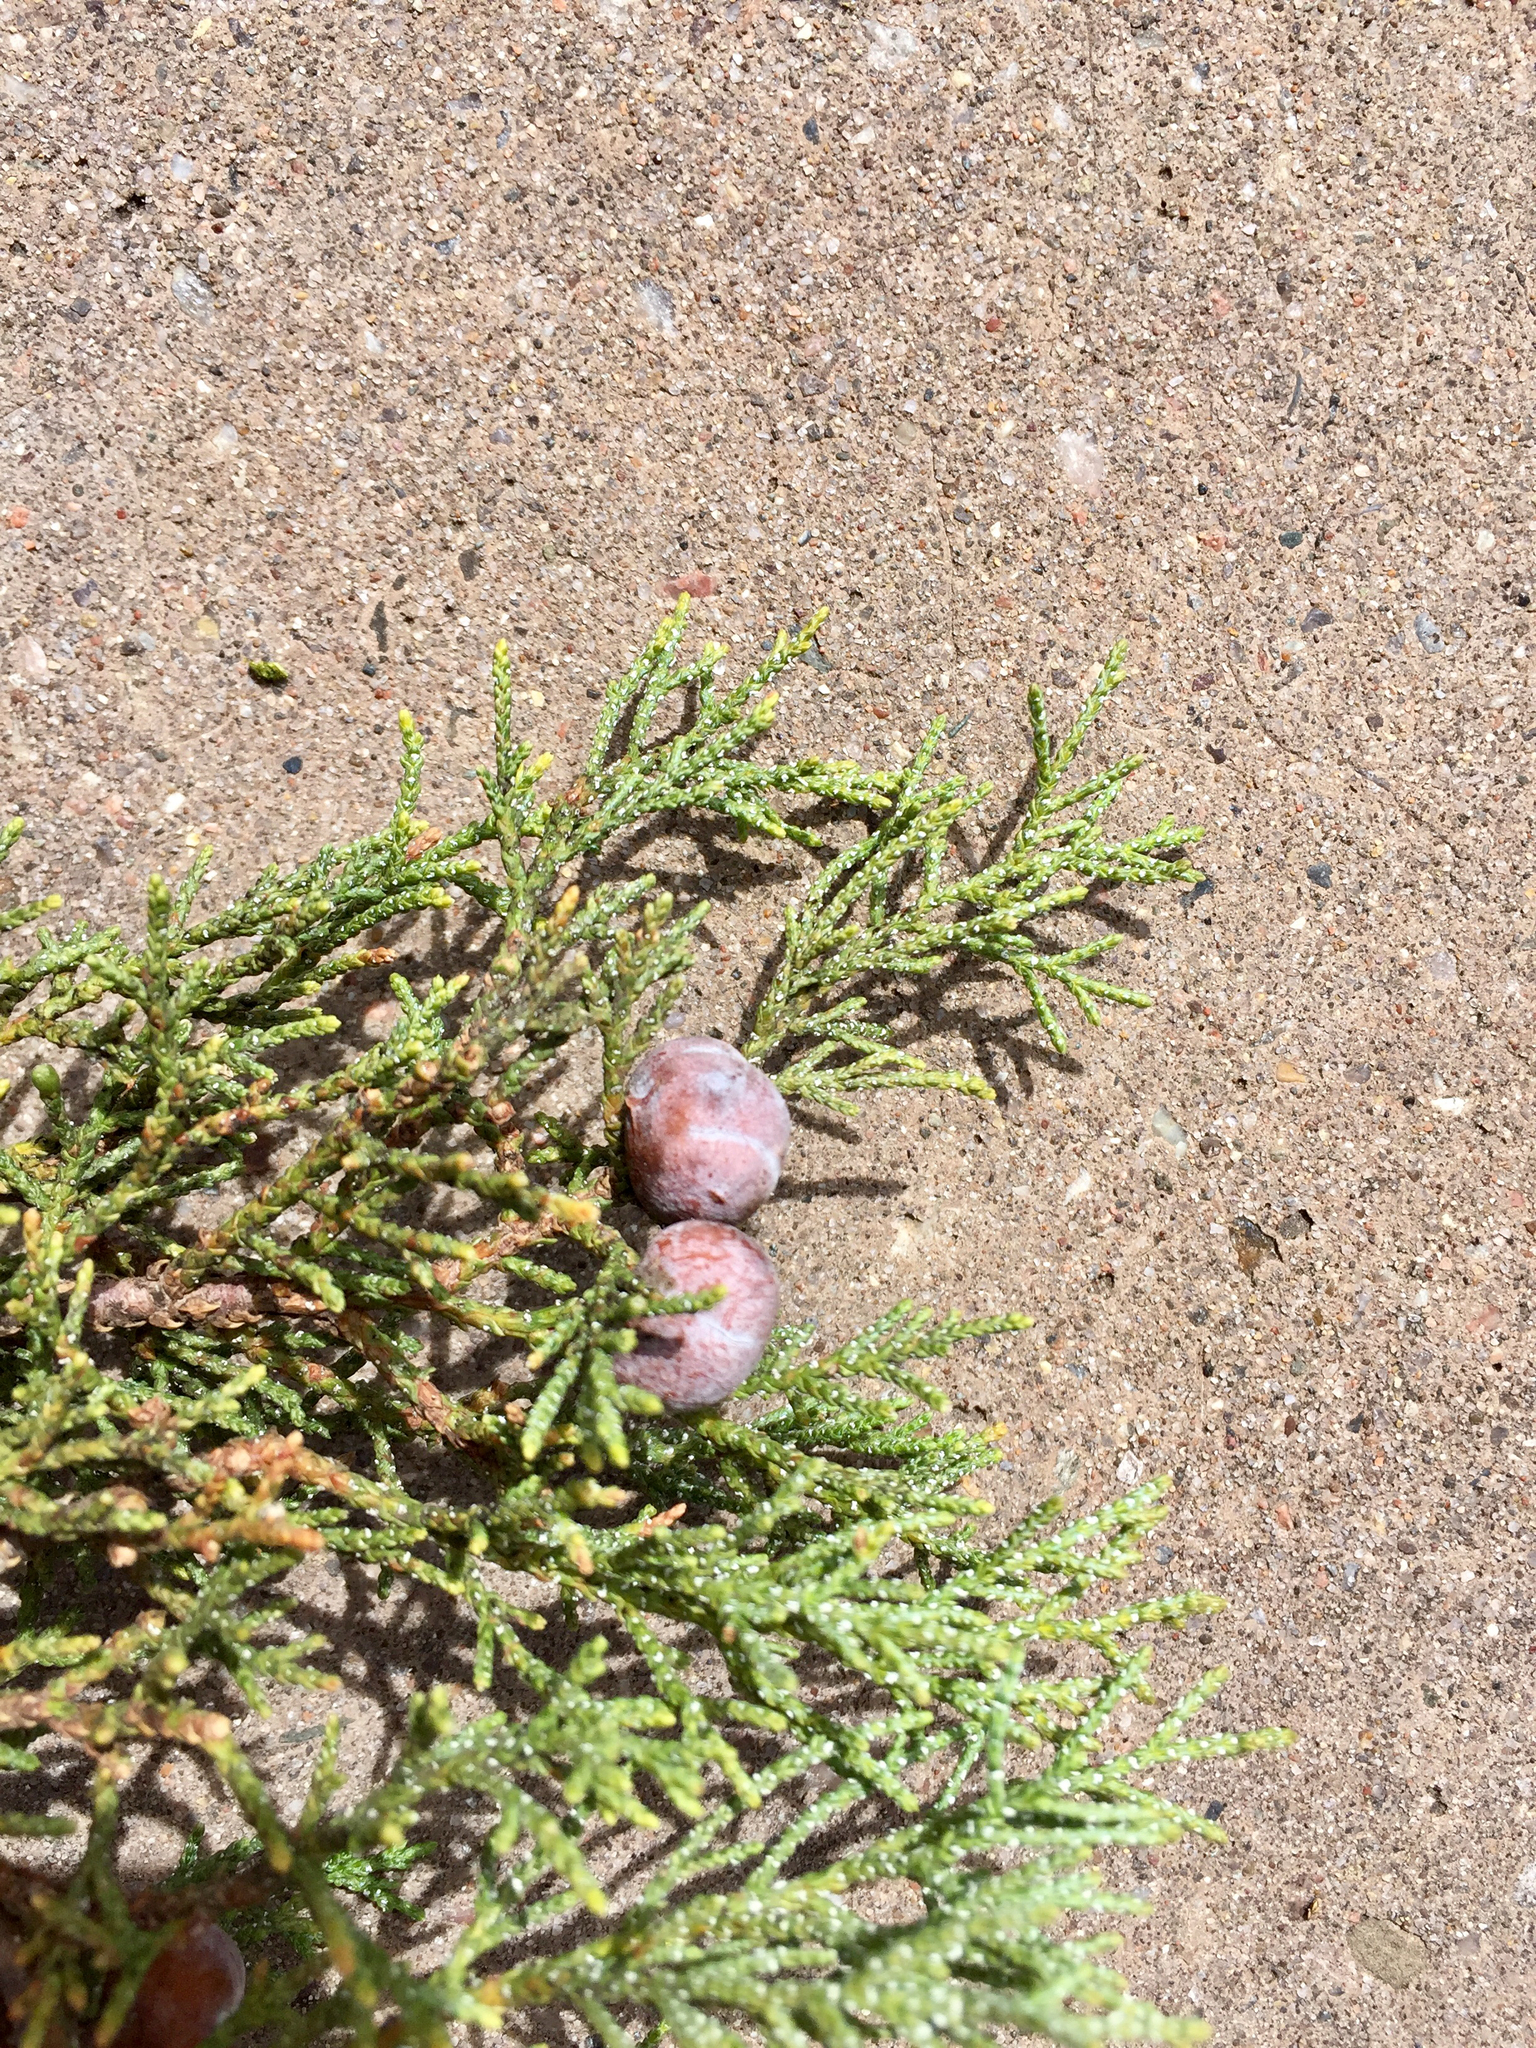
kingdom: Plantae
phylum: Tracheophyta
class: Pinopsida
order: Pinales
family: Cupressaceae
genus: Juniperus
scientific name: Juniperus deppeana
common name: Alligator juniper
